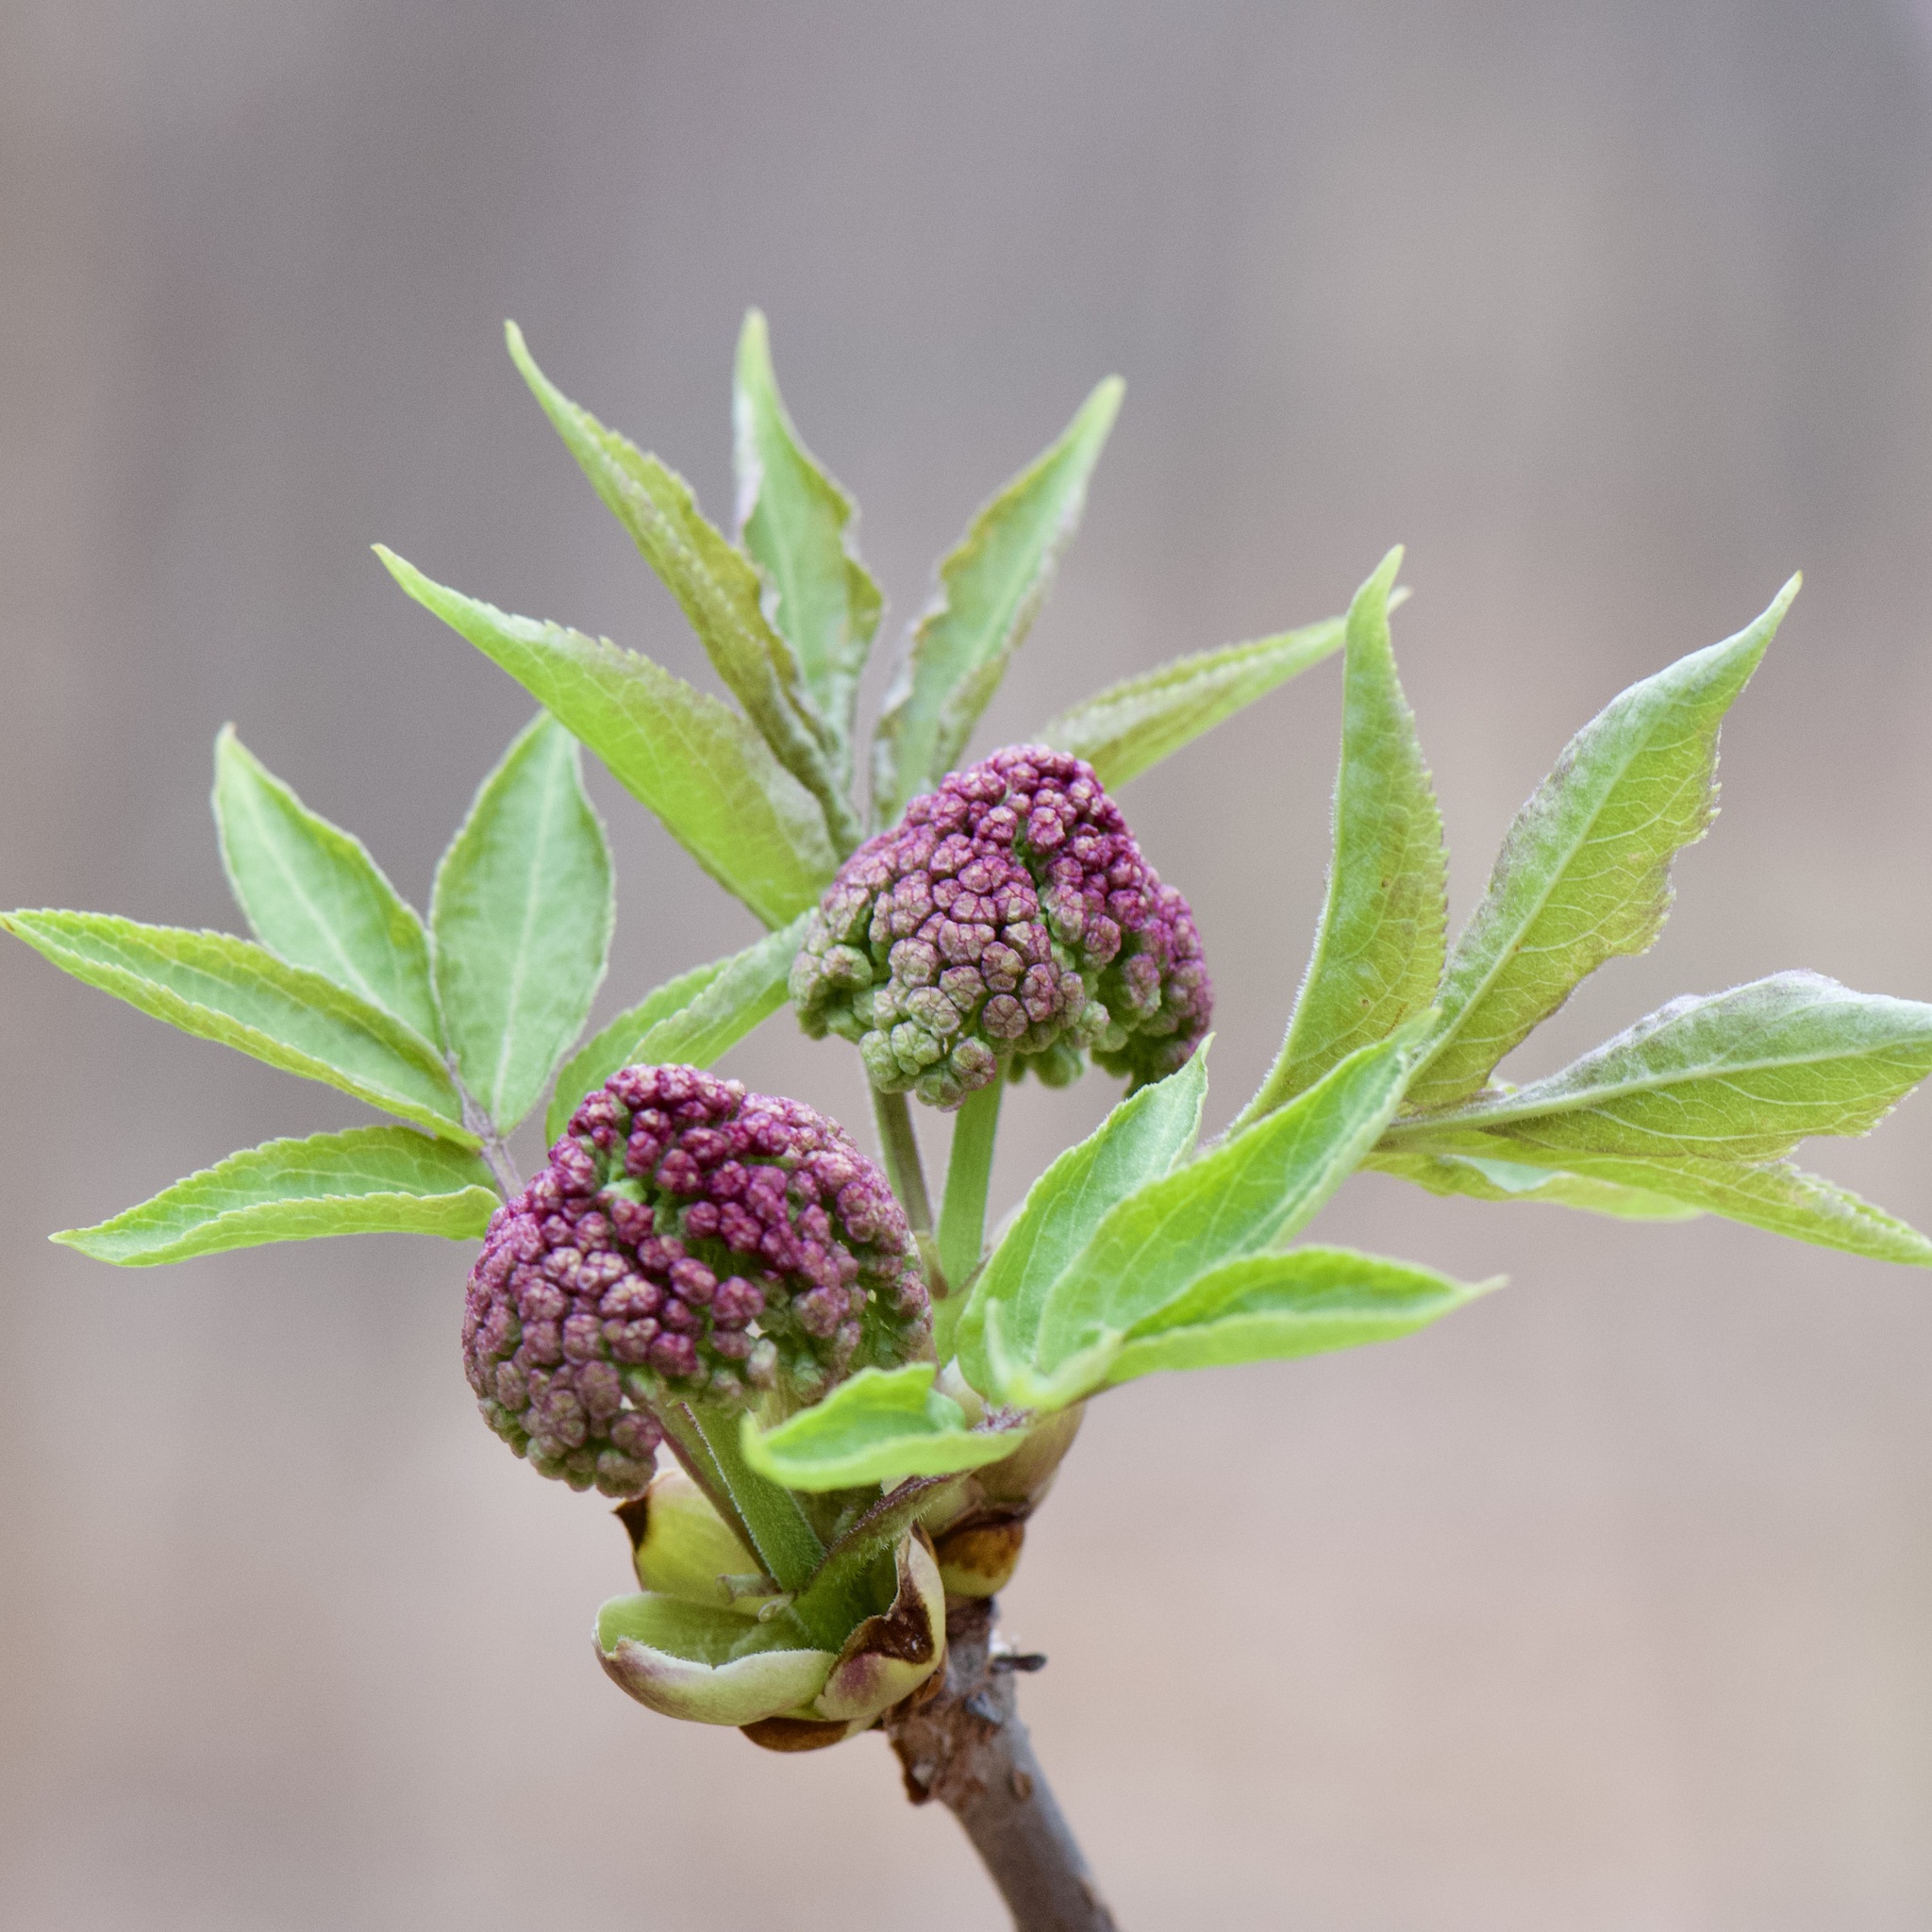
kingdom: Plantae
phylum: Tracheophyta
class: Magnoliopsida
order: Dipsacales
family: Viburnaceae
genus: Sambucus
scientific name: Sambucus racemosa
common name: Red-berried elder
